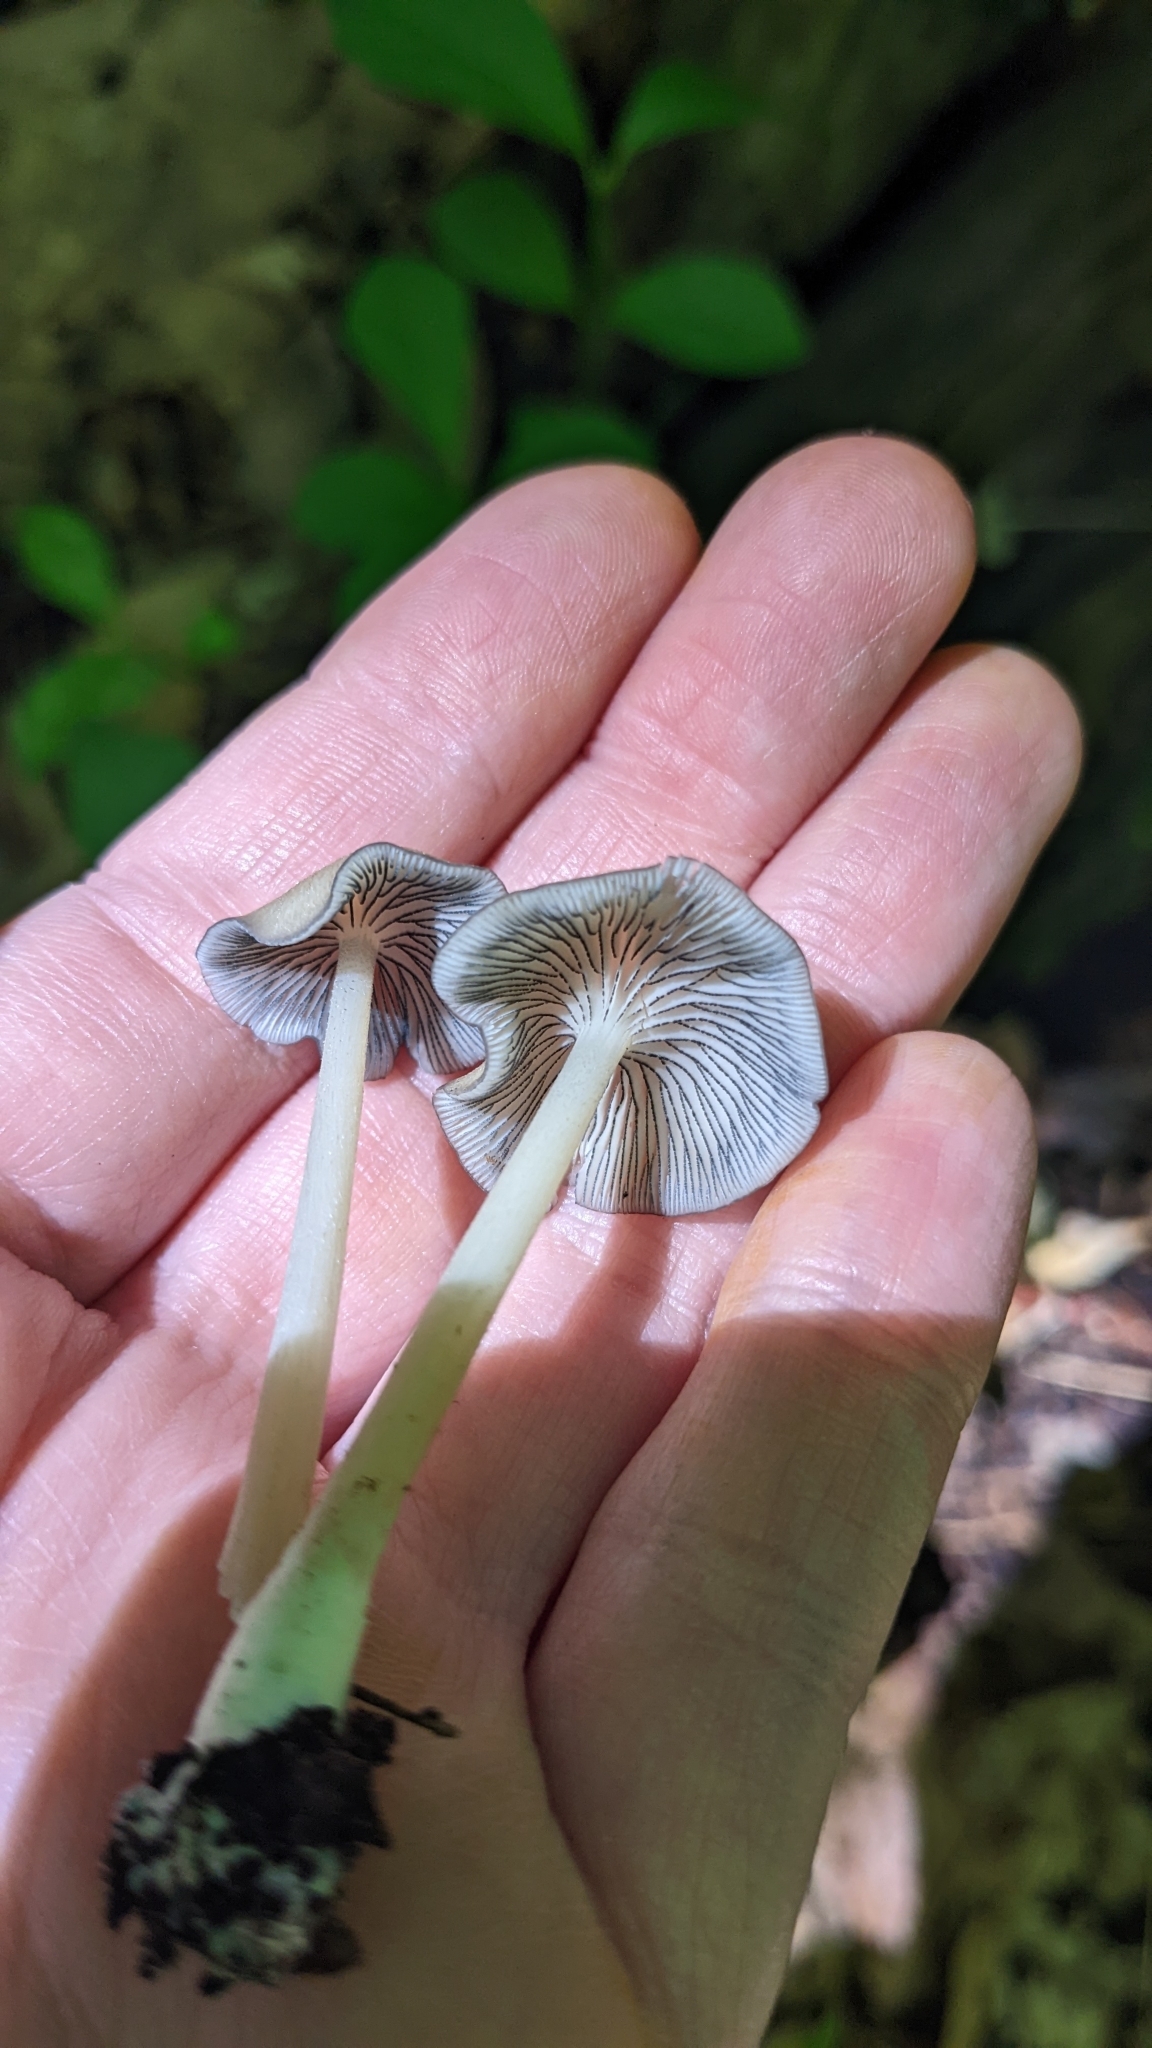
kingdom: Fungi
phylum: Basidiomycota
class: Agaricomycetes
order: Agaricales
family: Entolomataceae
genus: Entoloma
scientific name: Entoloma subserrulatum
